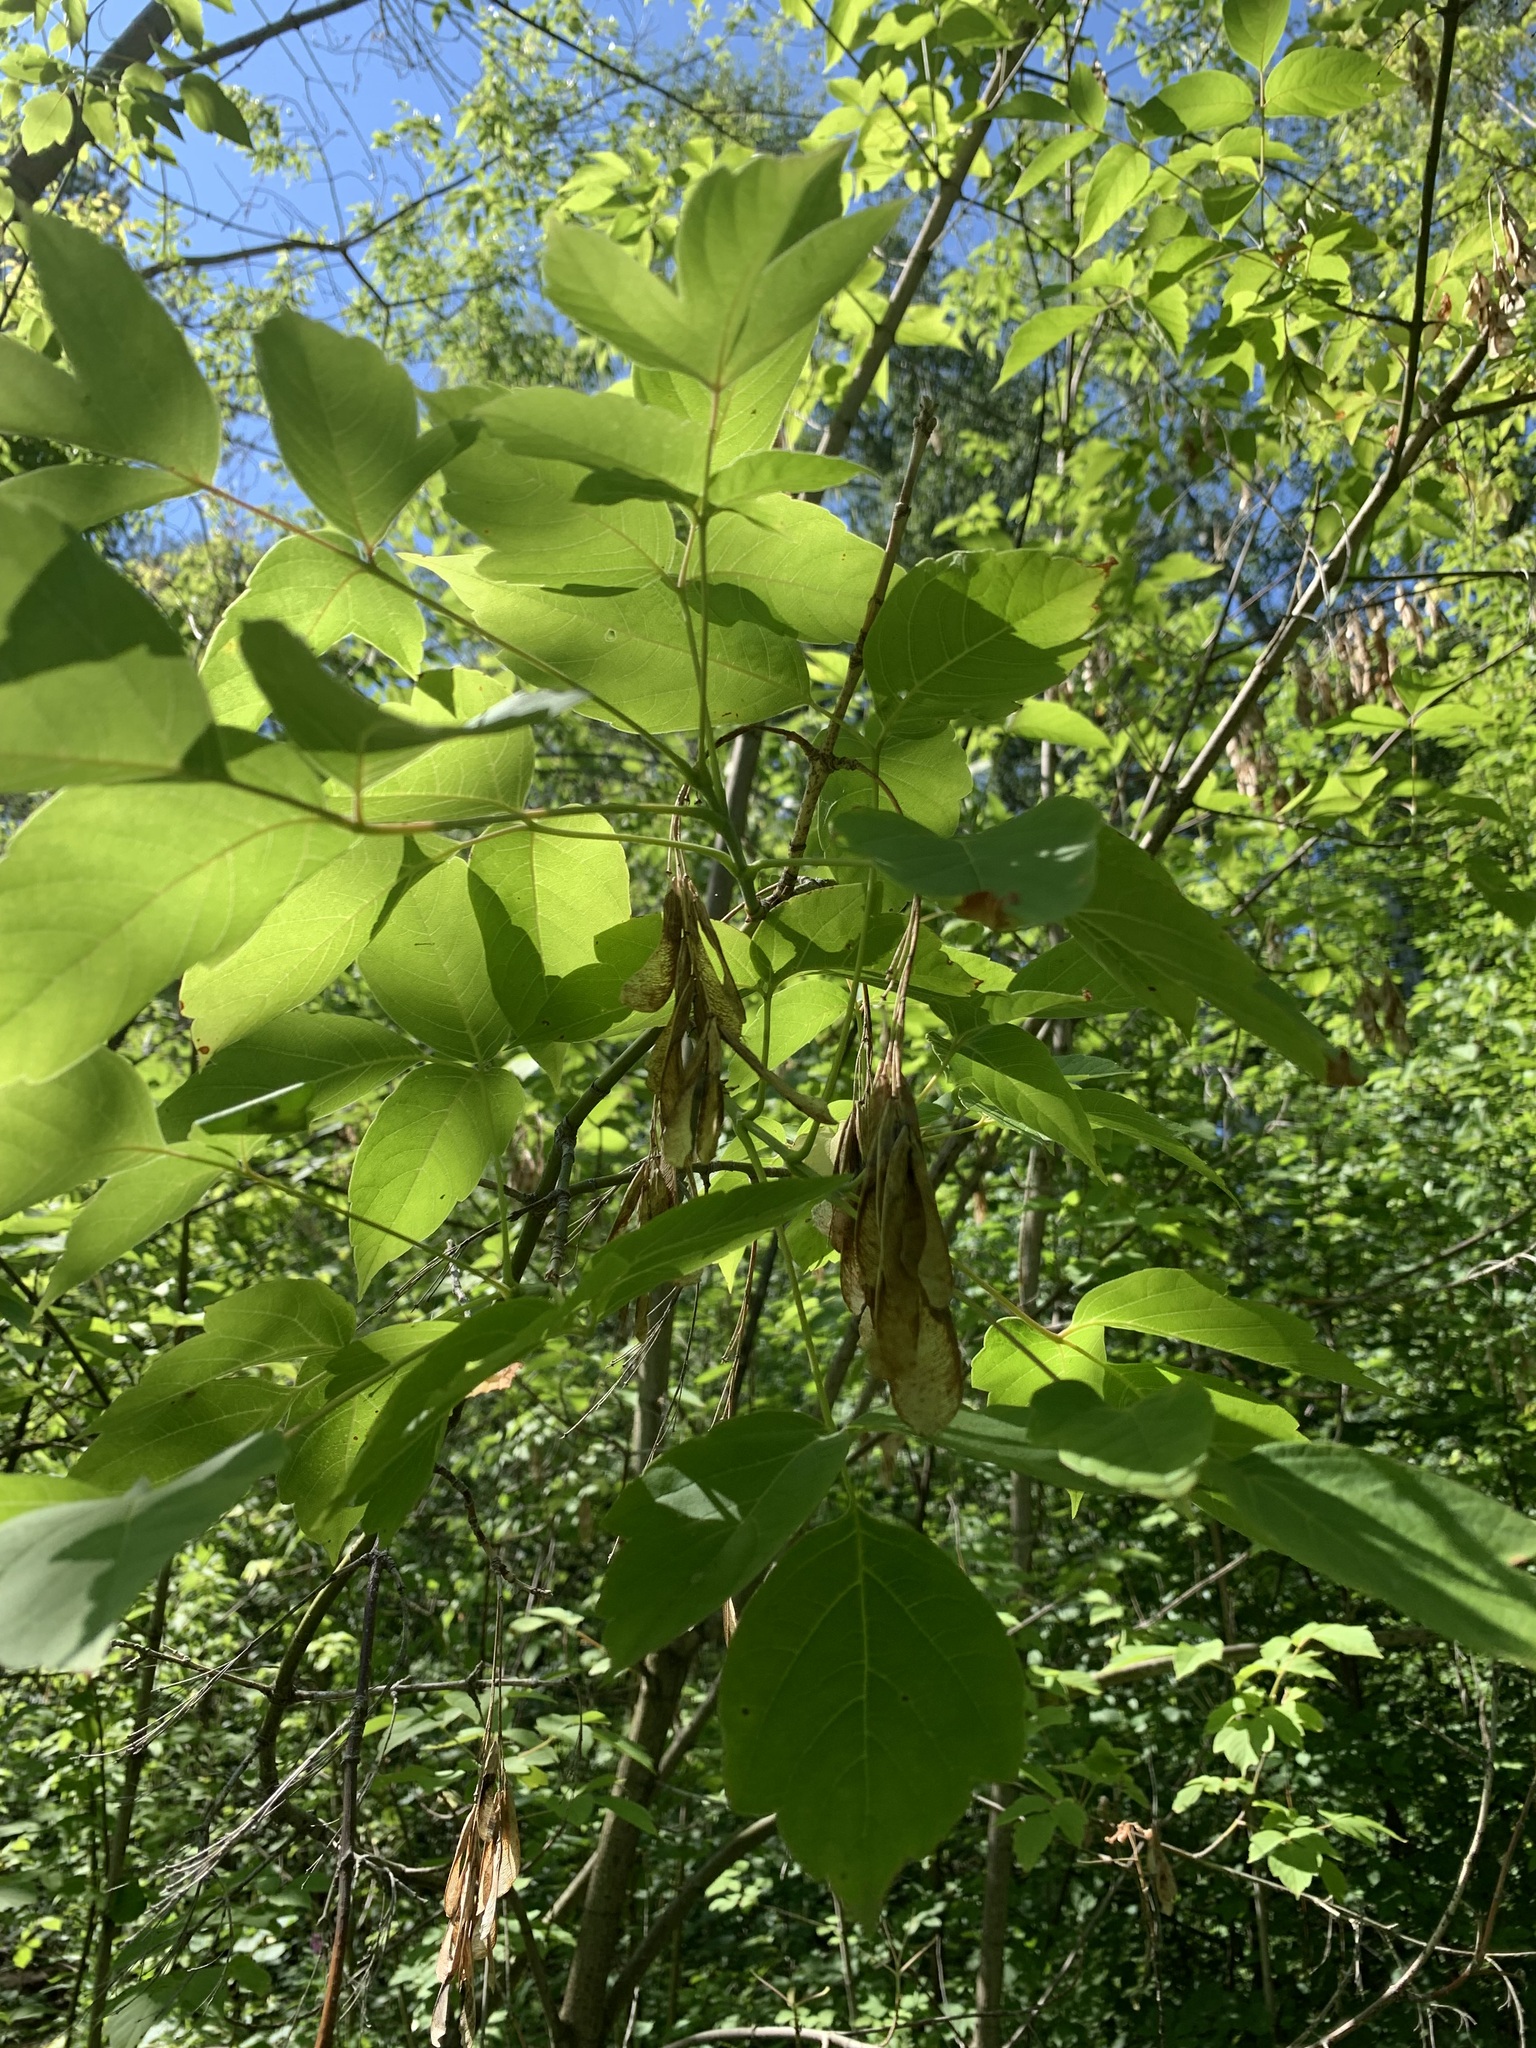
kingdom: Plantae
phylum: Tracheophyta
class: Magnoliopsida
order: Sapindales
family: Sapindaceae
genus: Acer
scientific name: Acer negundo
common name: Ashleaf maple
